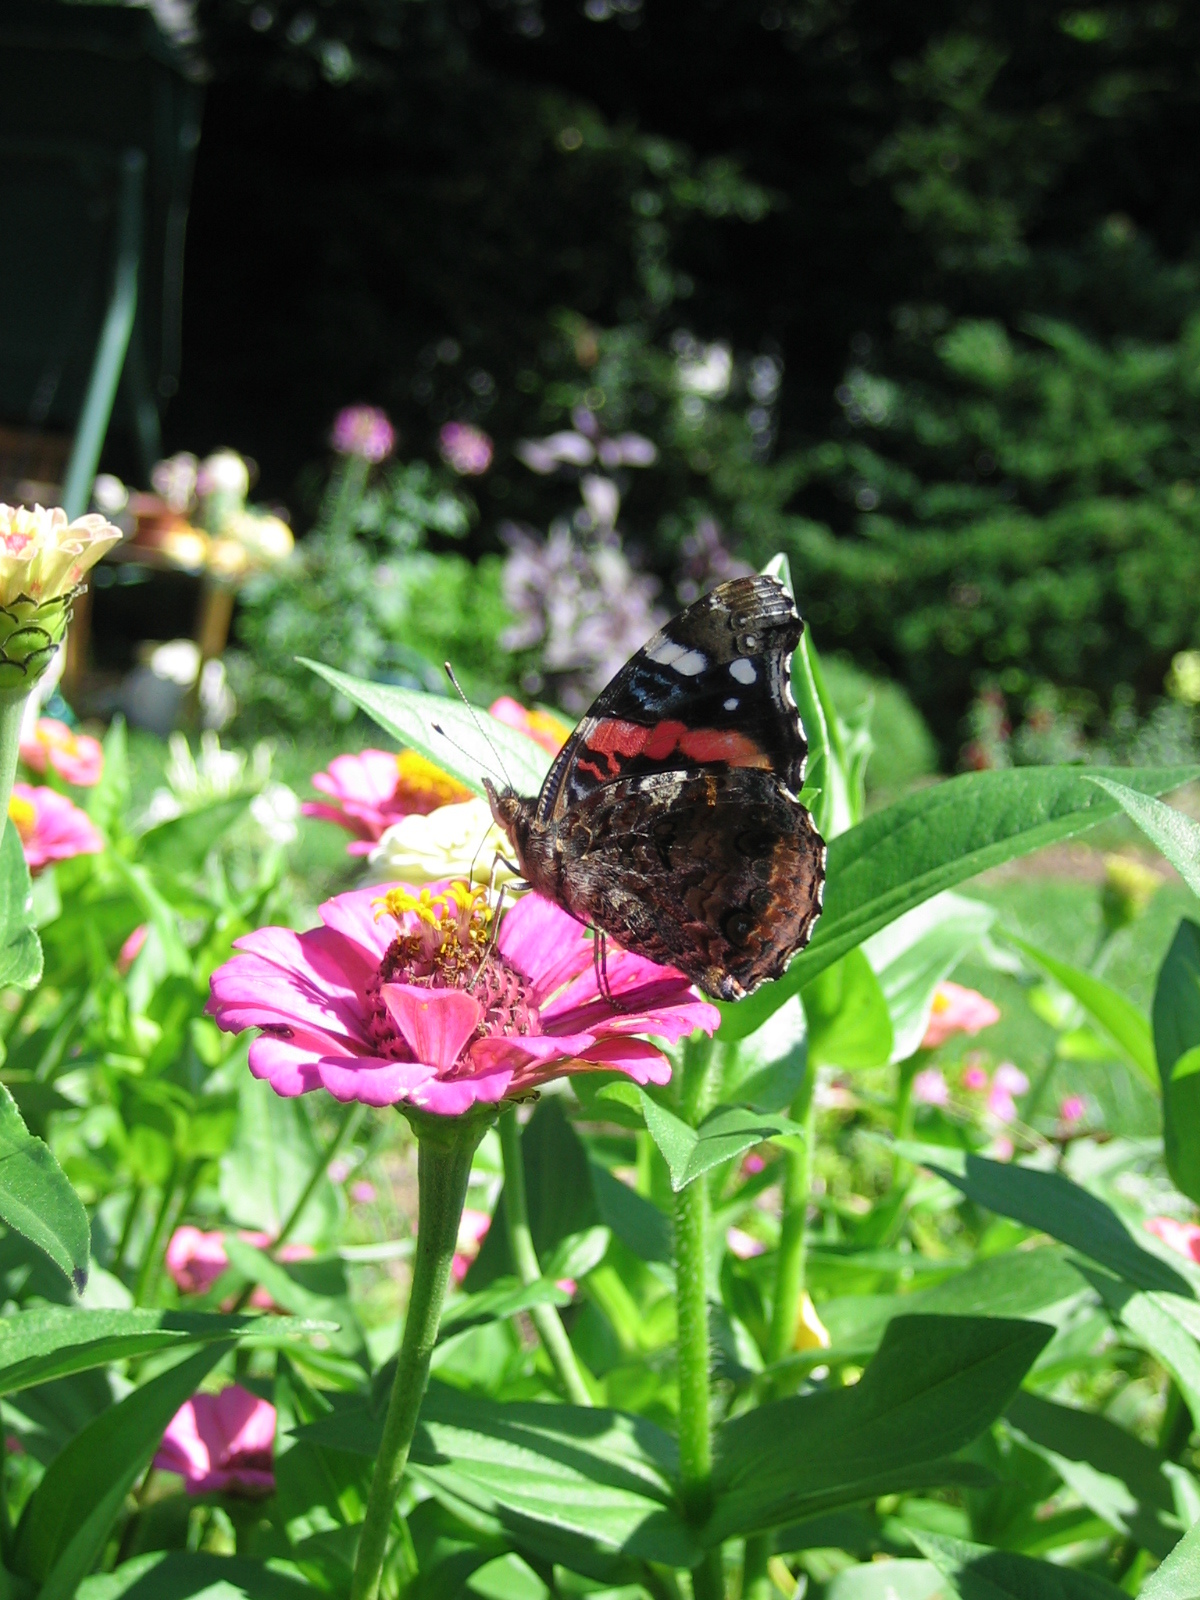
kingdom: Animalia
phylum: Arthropoda
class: Insecta
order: Lepidoptera
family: Nymphalidae
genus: Vanessa
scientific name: Vanessa atalanta
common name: Red admiral
